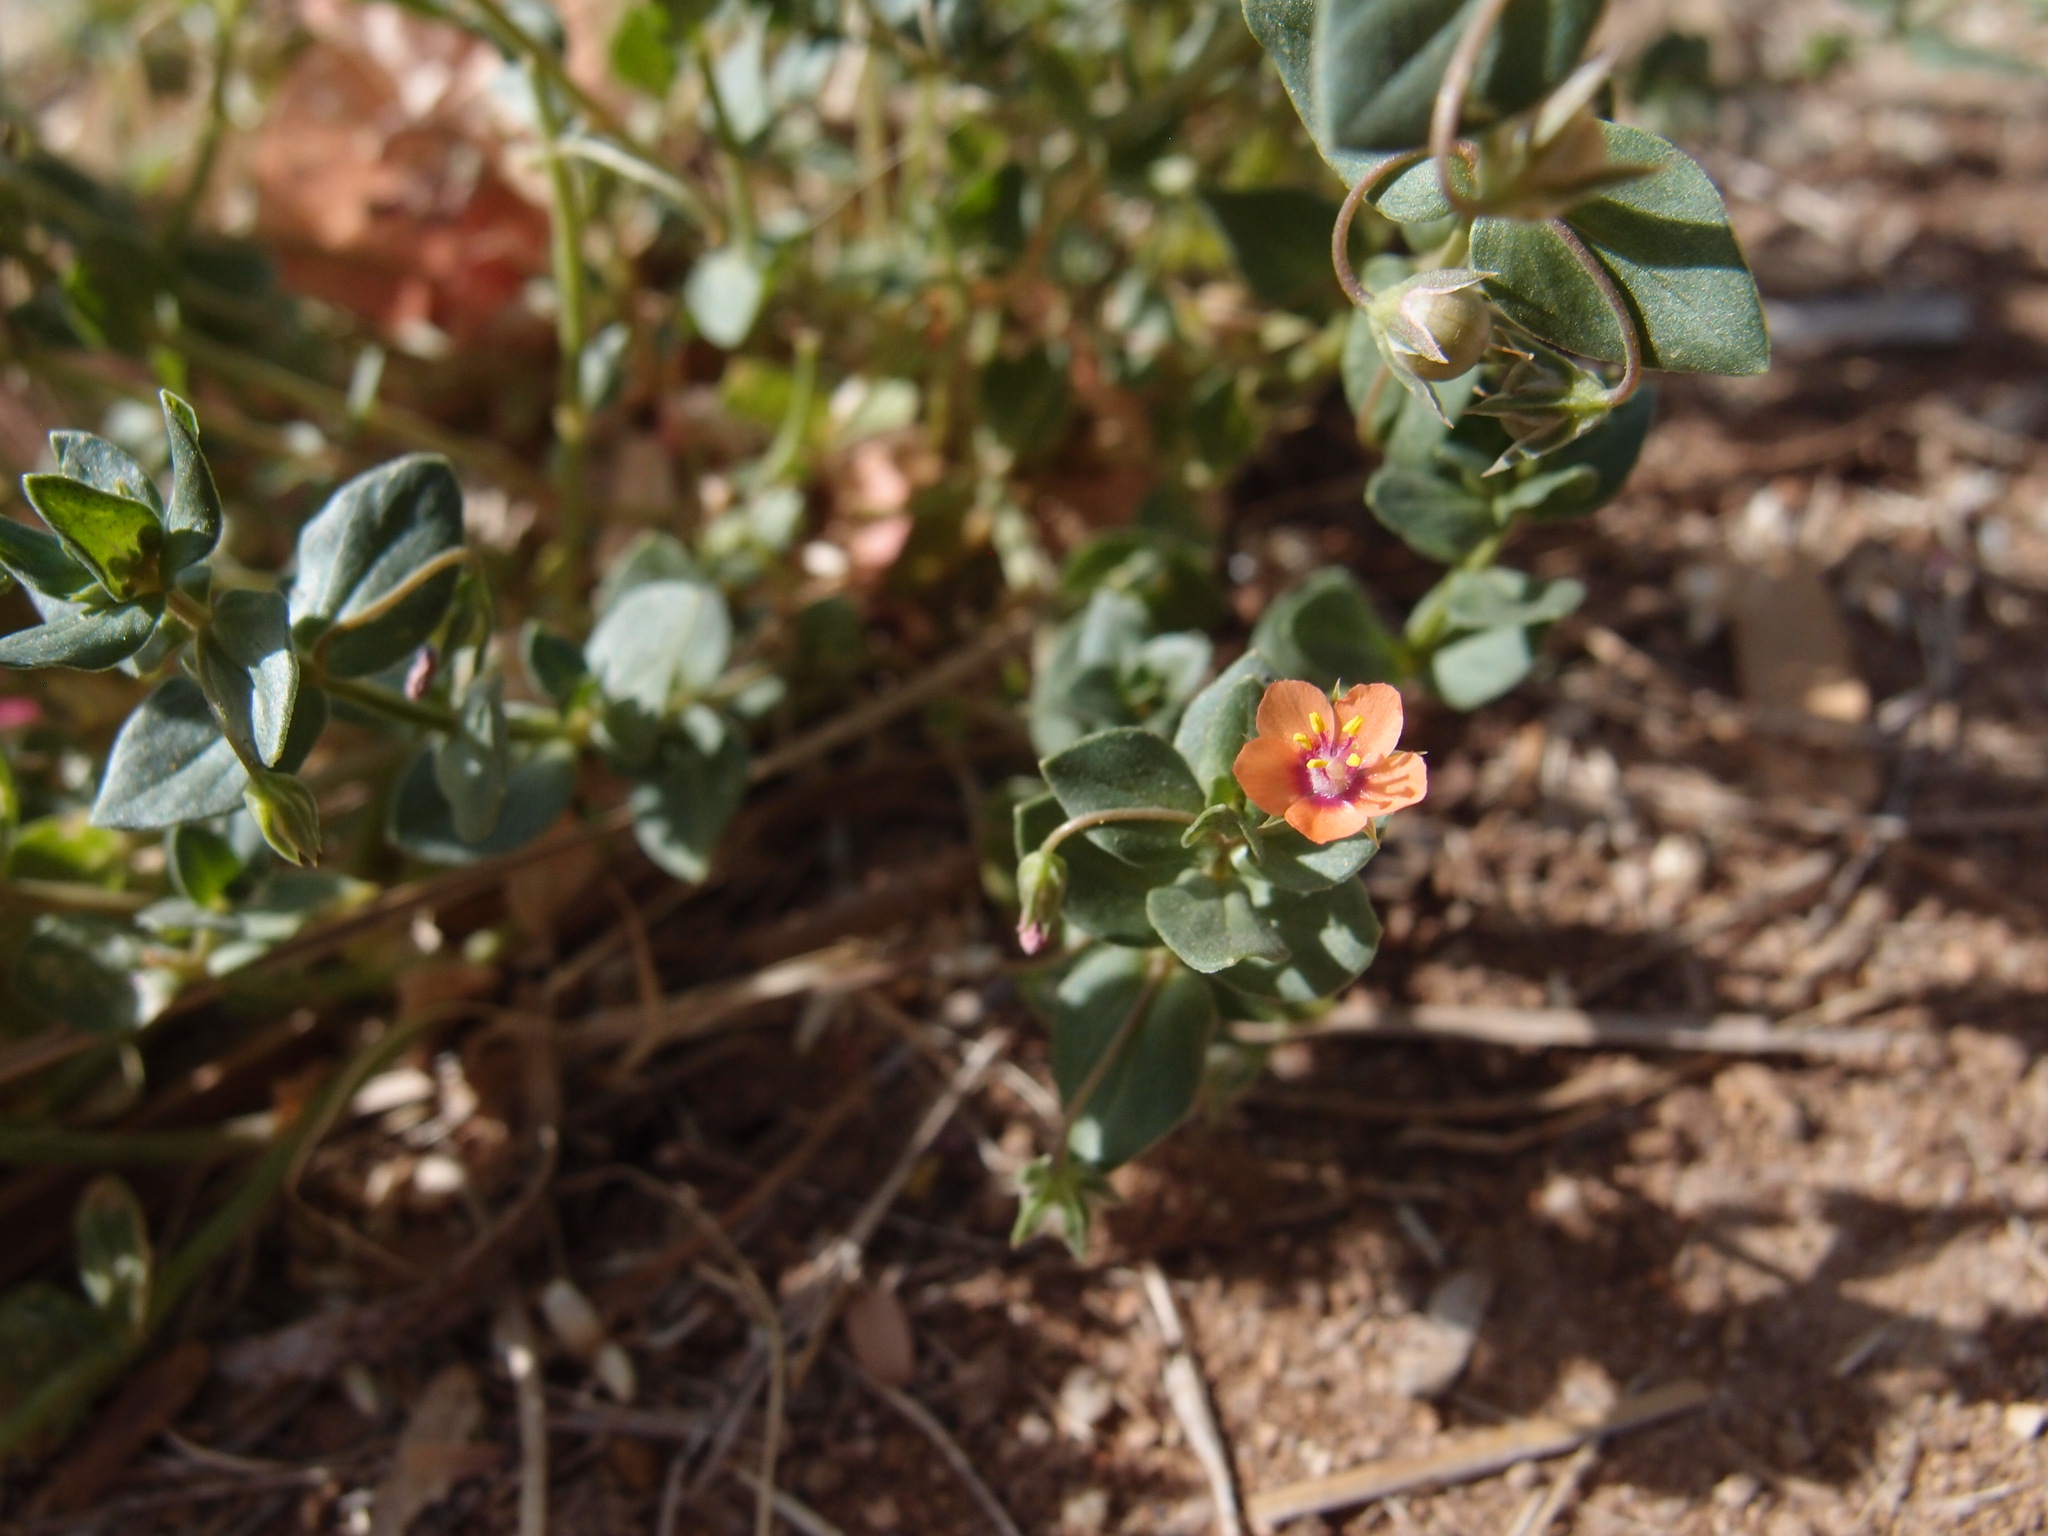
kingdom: Plantae
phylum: Tracheophyta
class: Magnoliopsida
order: Ericales
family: Primulaceae
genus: Lysimachia
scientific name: Lysimachia arvensis
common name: Scarlet pimpernel
